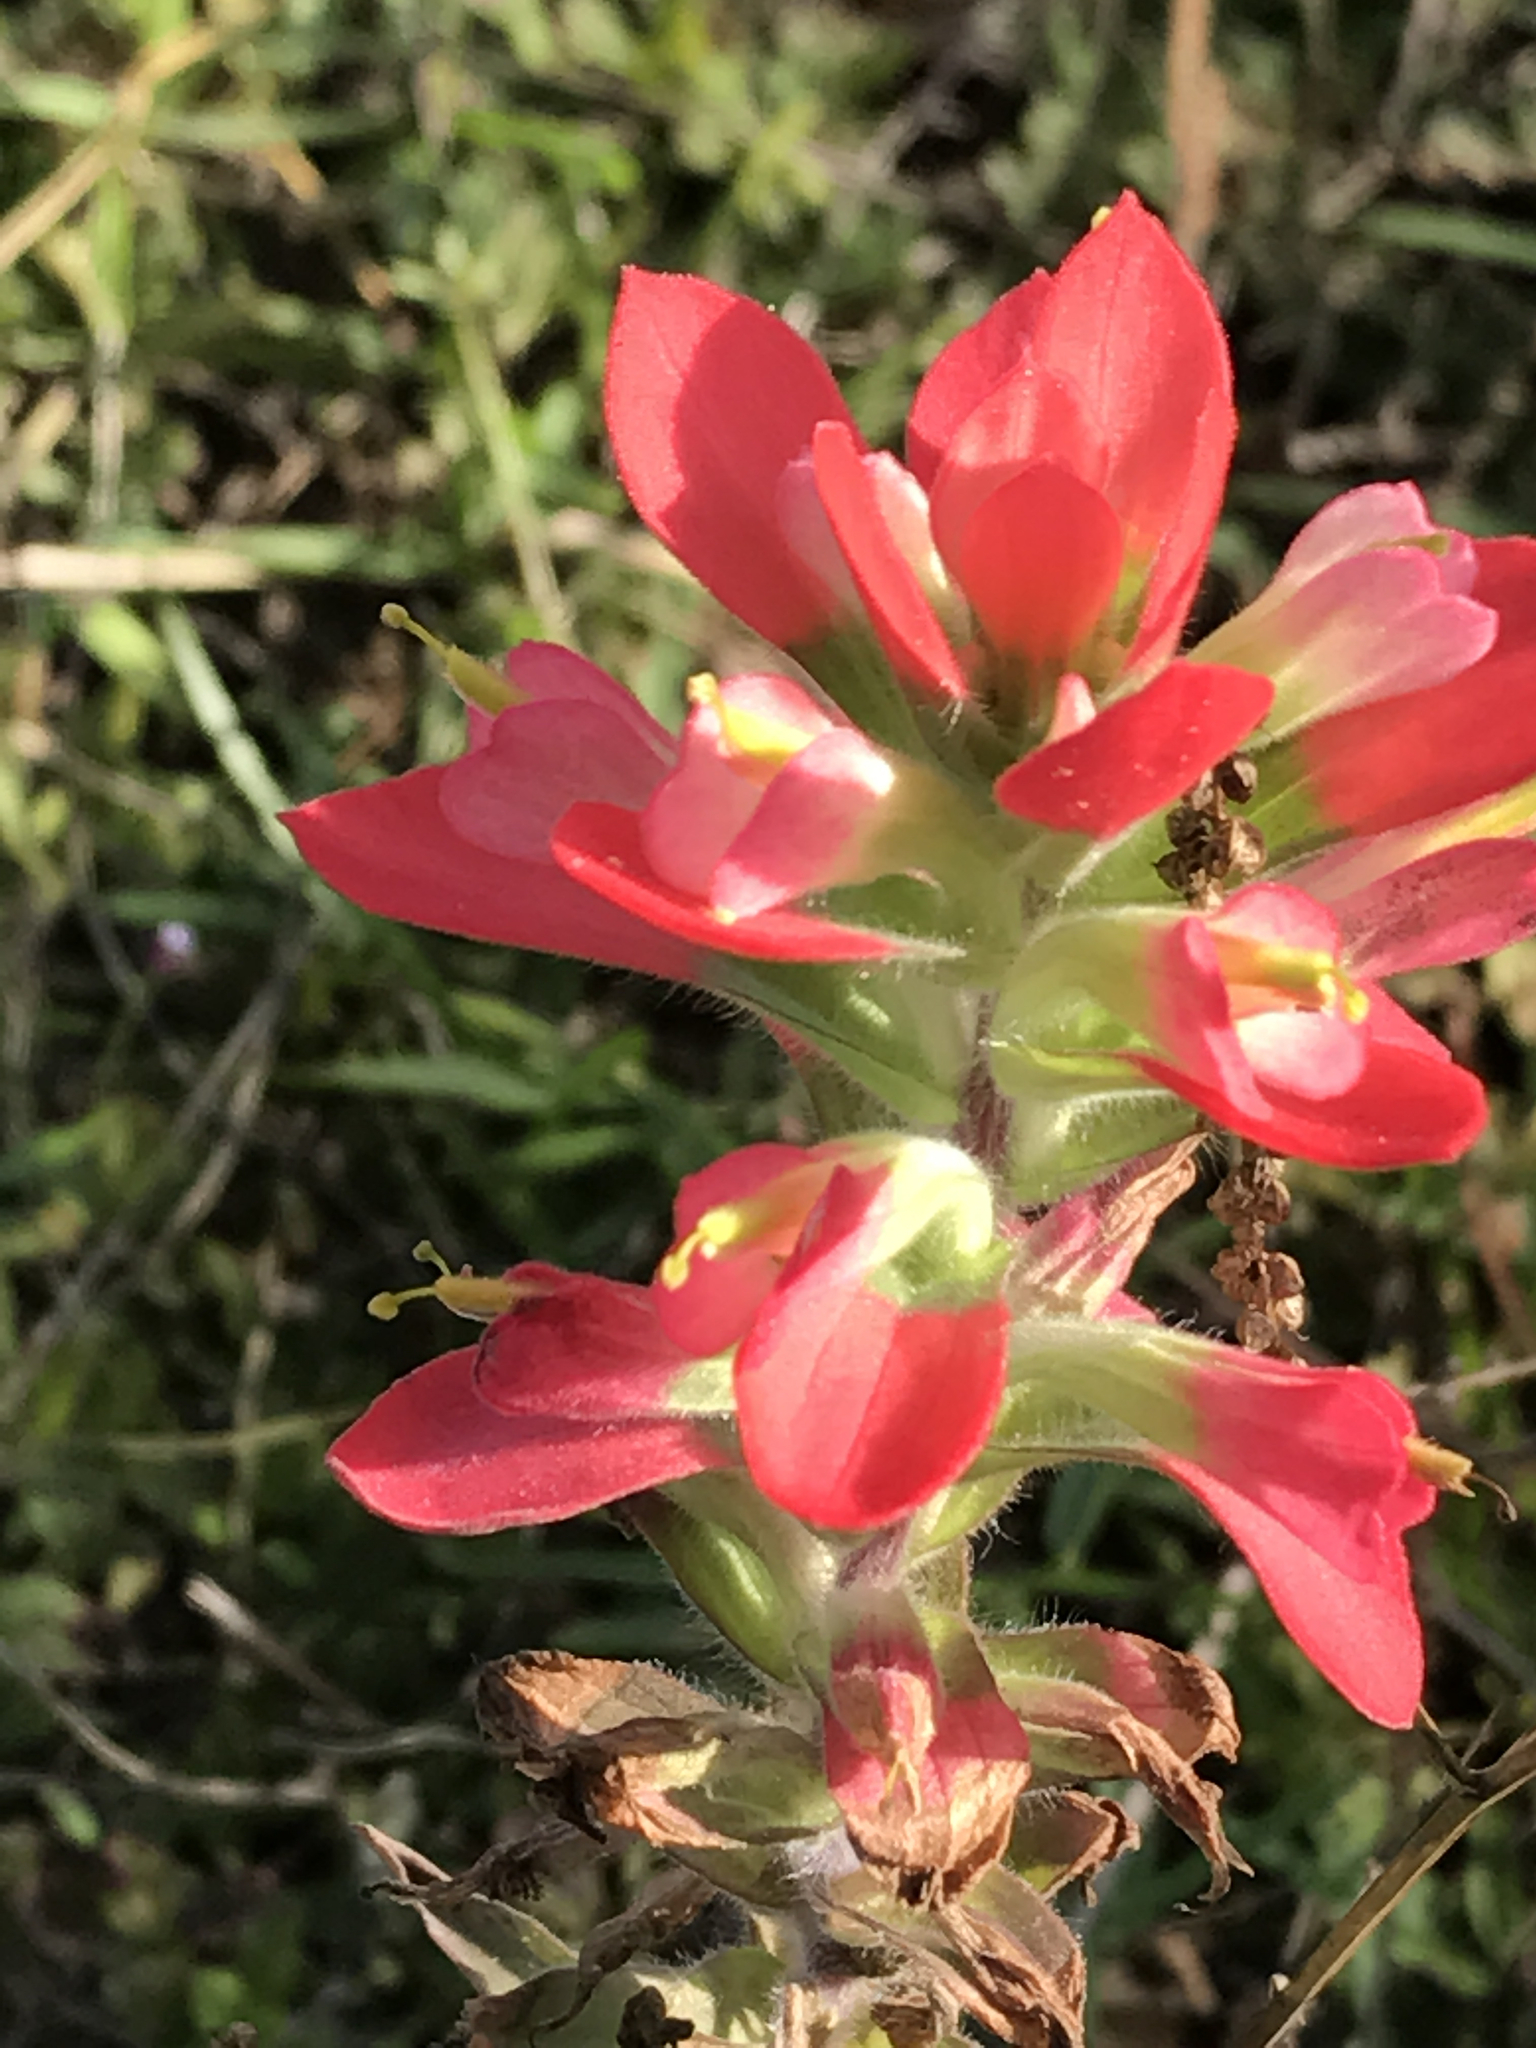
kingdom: Plantae
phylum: Tracheophyta
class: Magnoliopsida
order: Lamiales
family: Orobanchaceae
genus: Castilleja
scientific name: Castilleja indivisa
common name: Texas paintbrush
